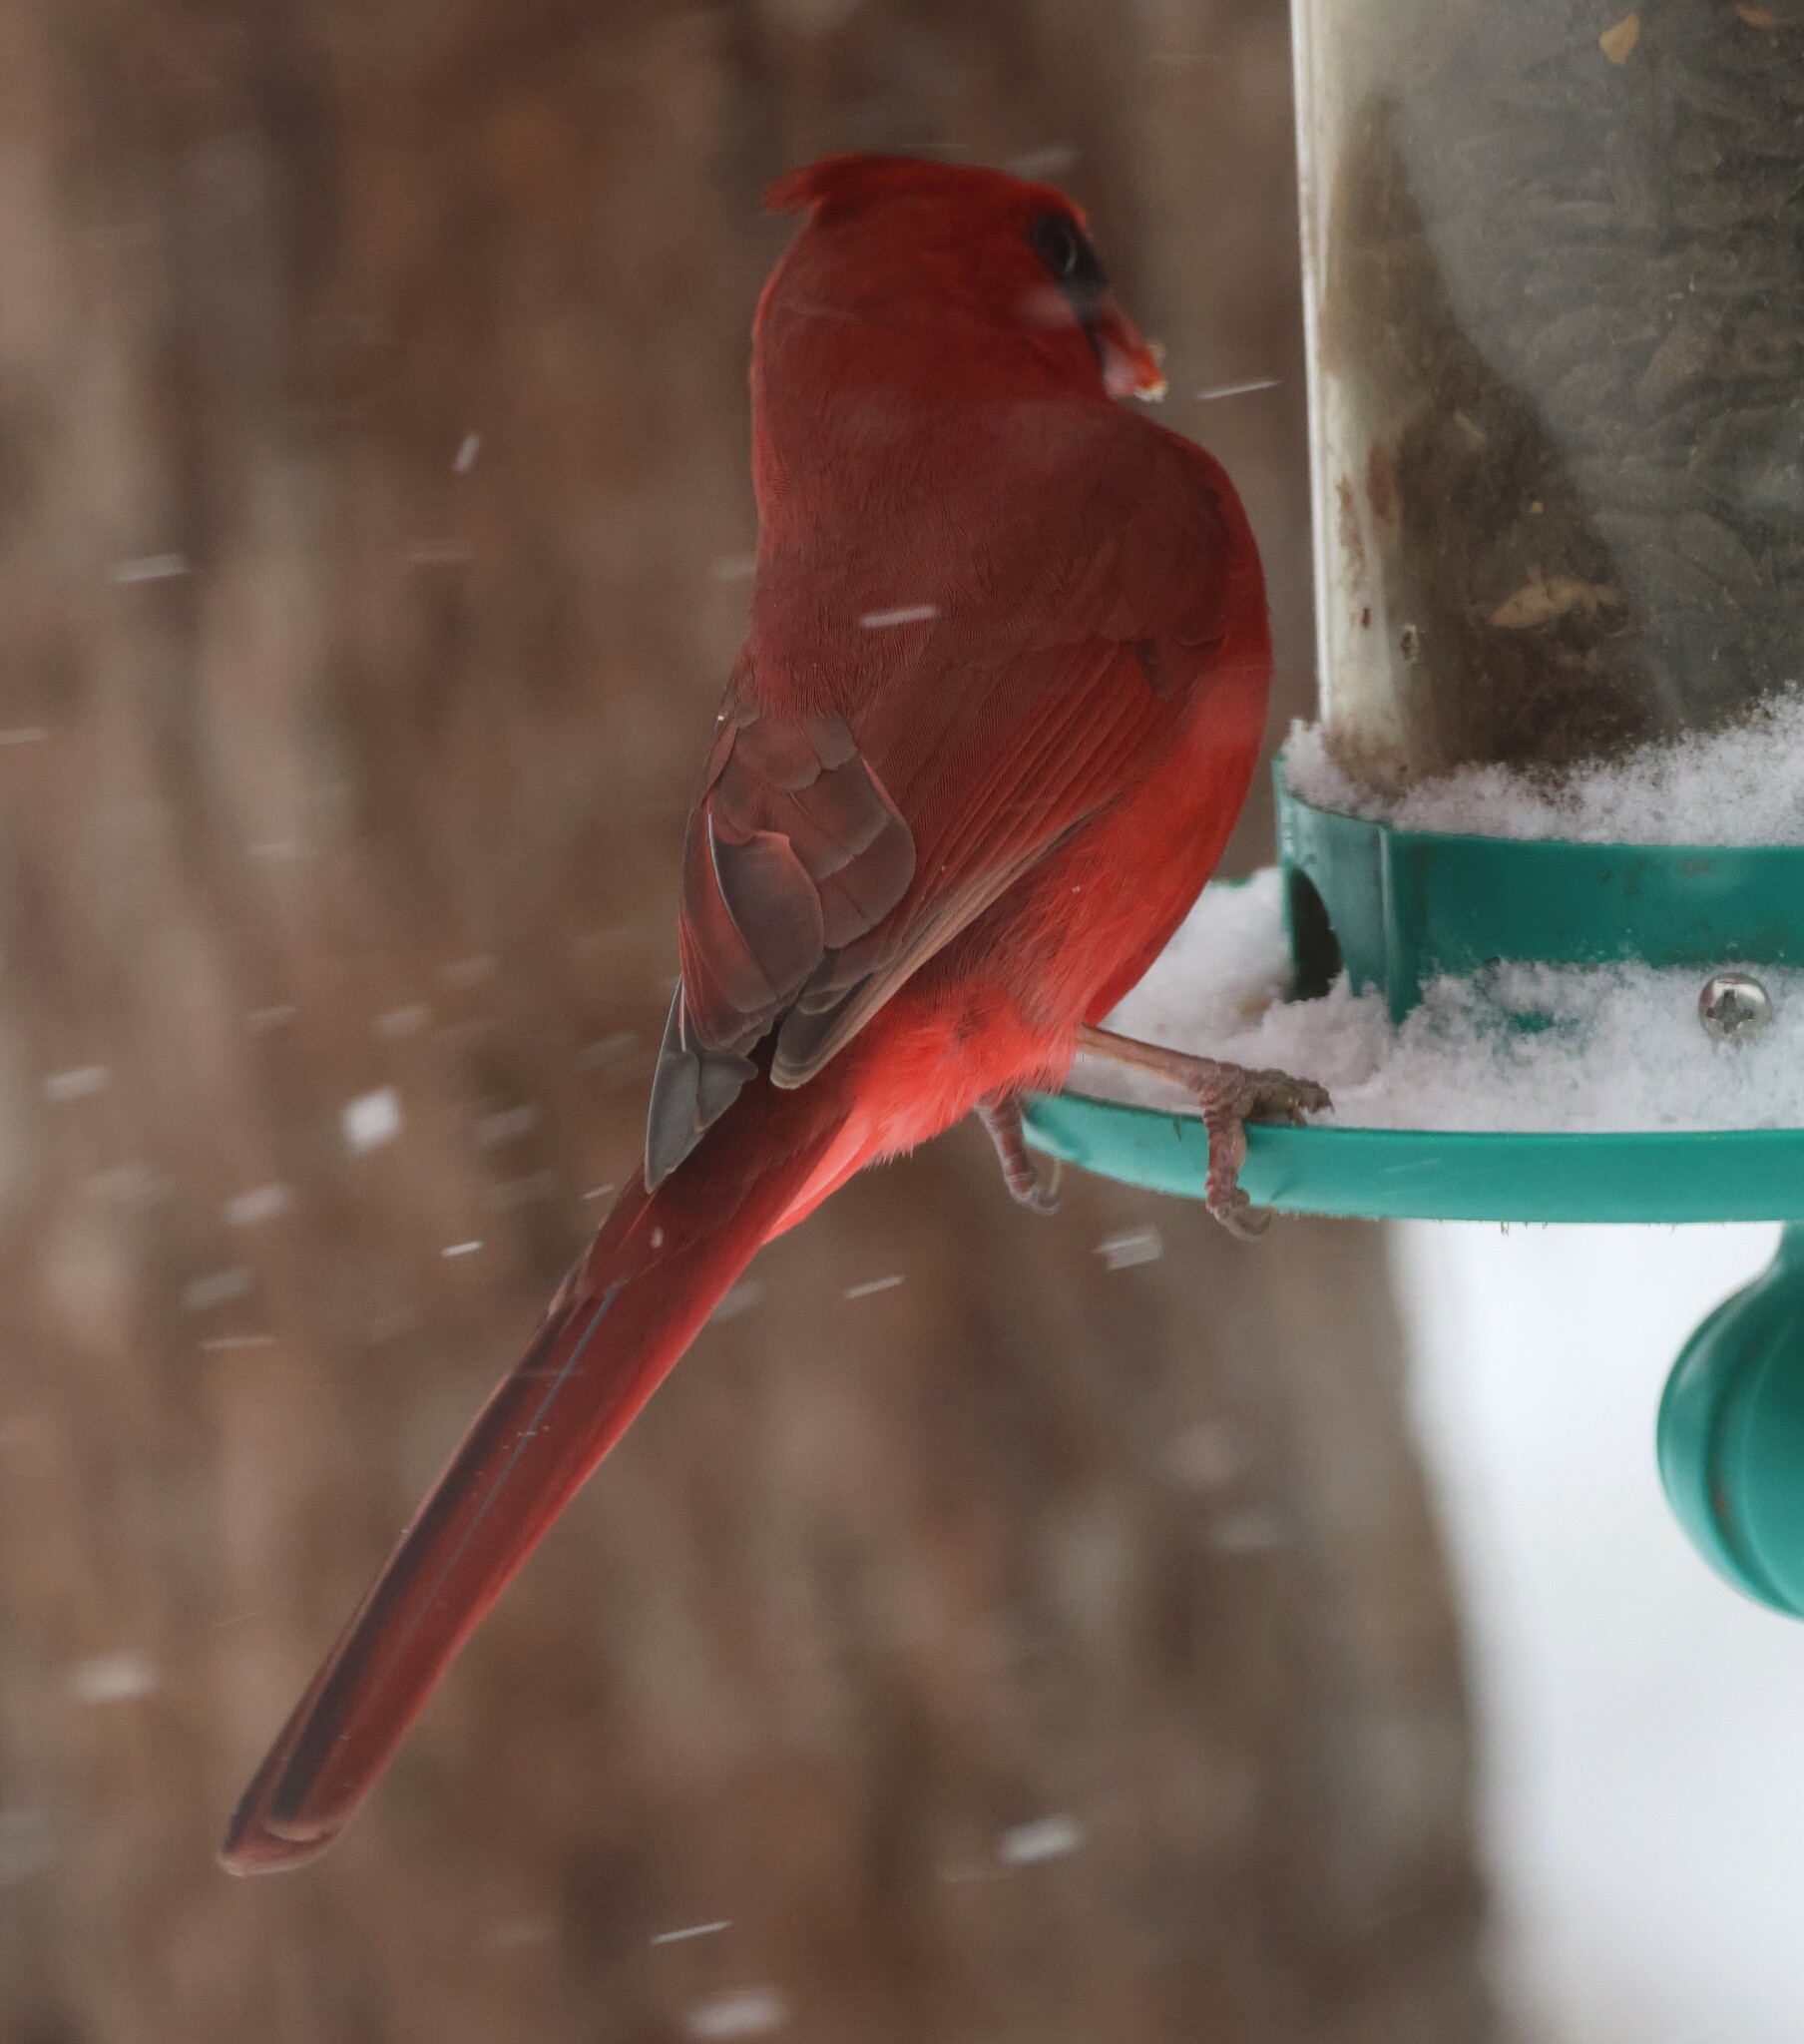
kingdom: Animalia
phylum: Chordata
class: Aves
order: Passeriformes
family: Cardinalidae
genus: Cardinalis
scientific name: Cardinalis cardinalis
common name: Northern cardinal
